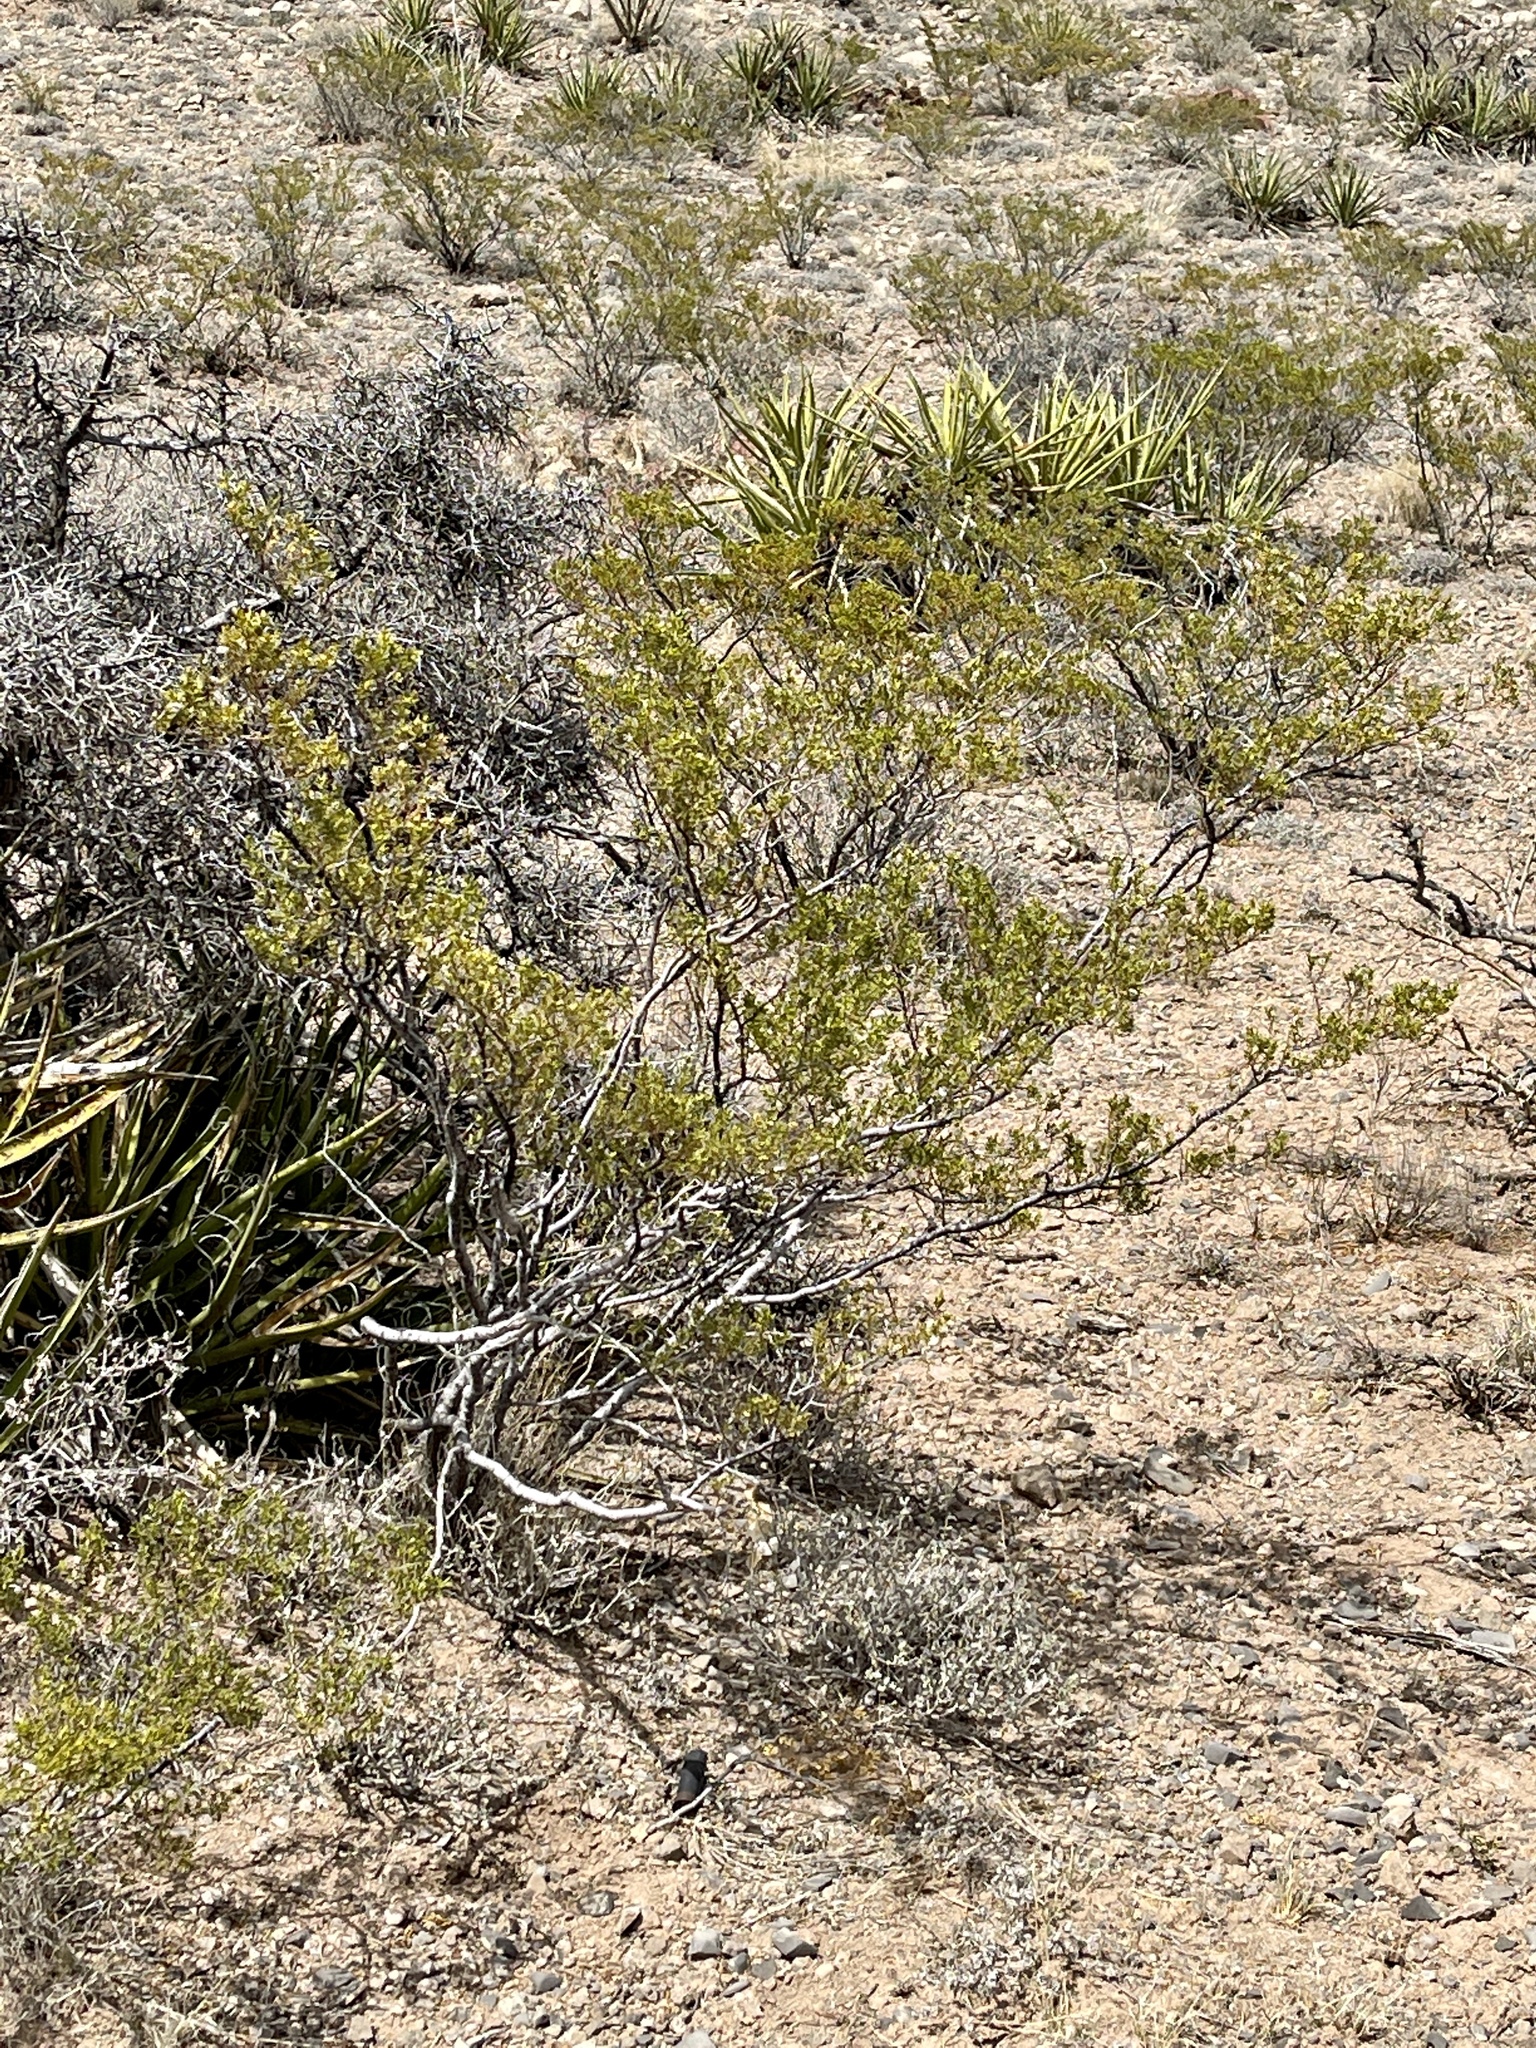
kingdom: Plantae
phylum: Tracheophyta
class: Magnoliopsida
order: Zygophyllales
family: Zygophyllaceae
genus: Larrea
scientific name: Larrea tridentata
